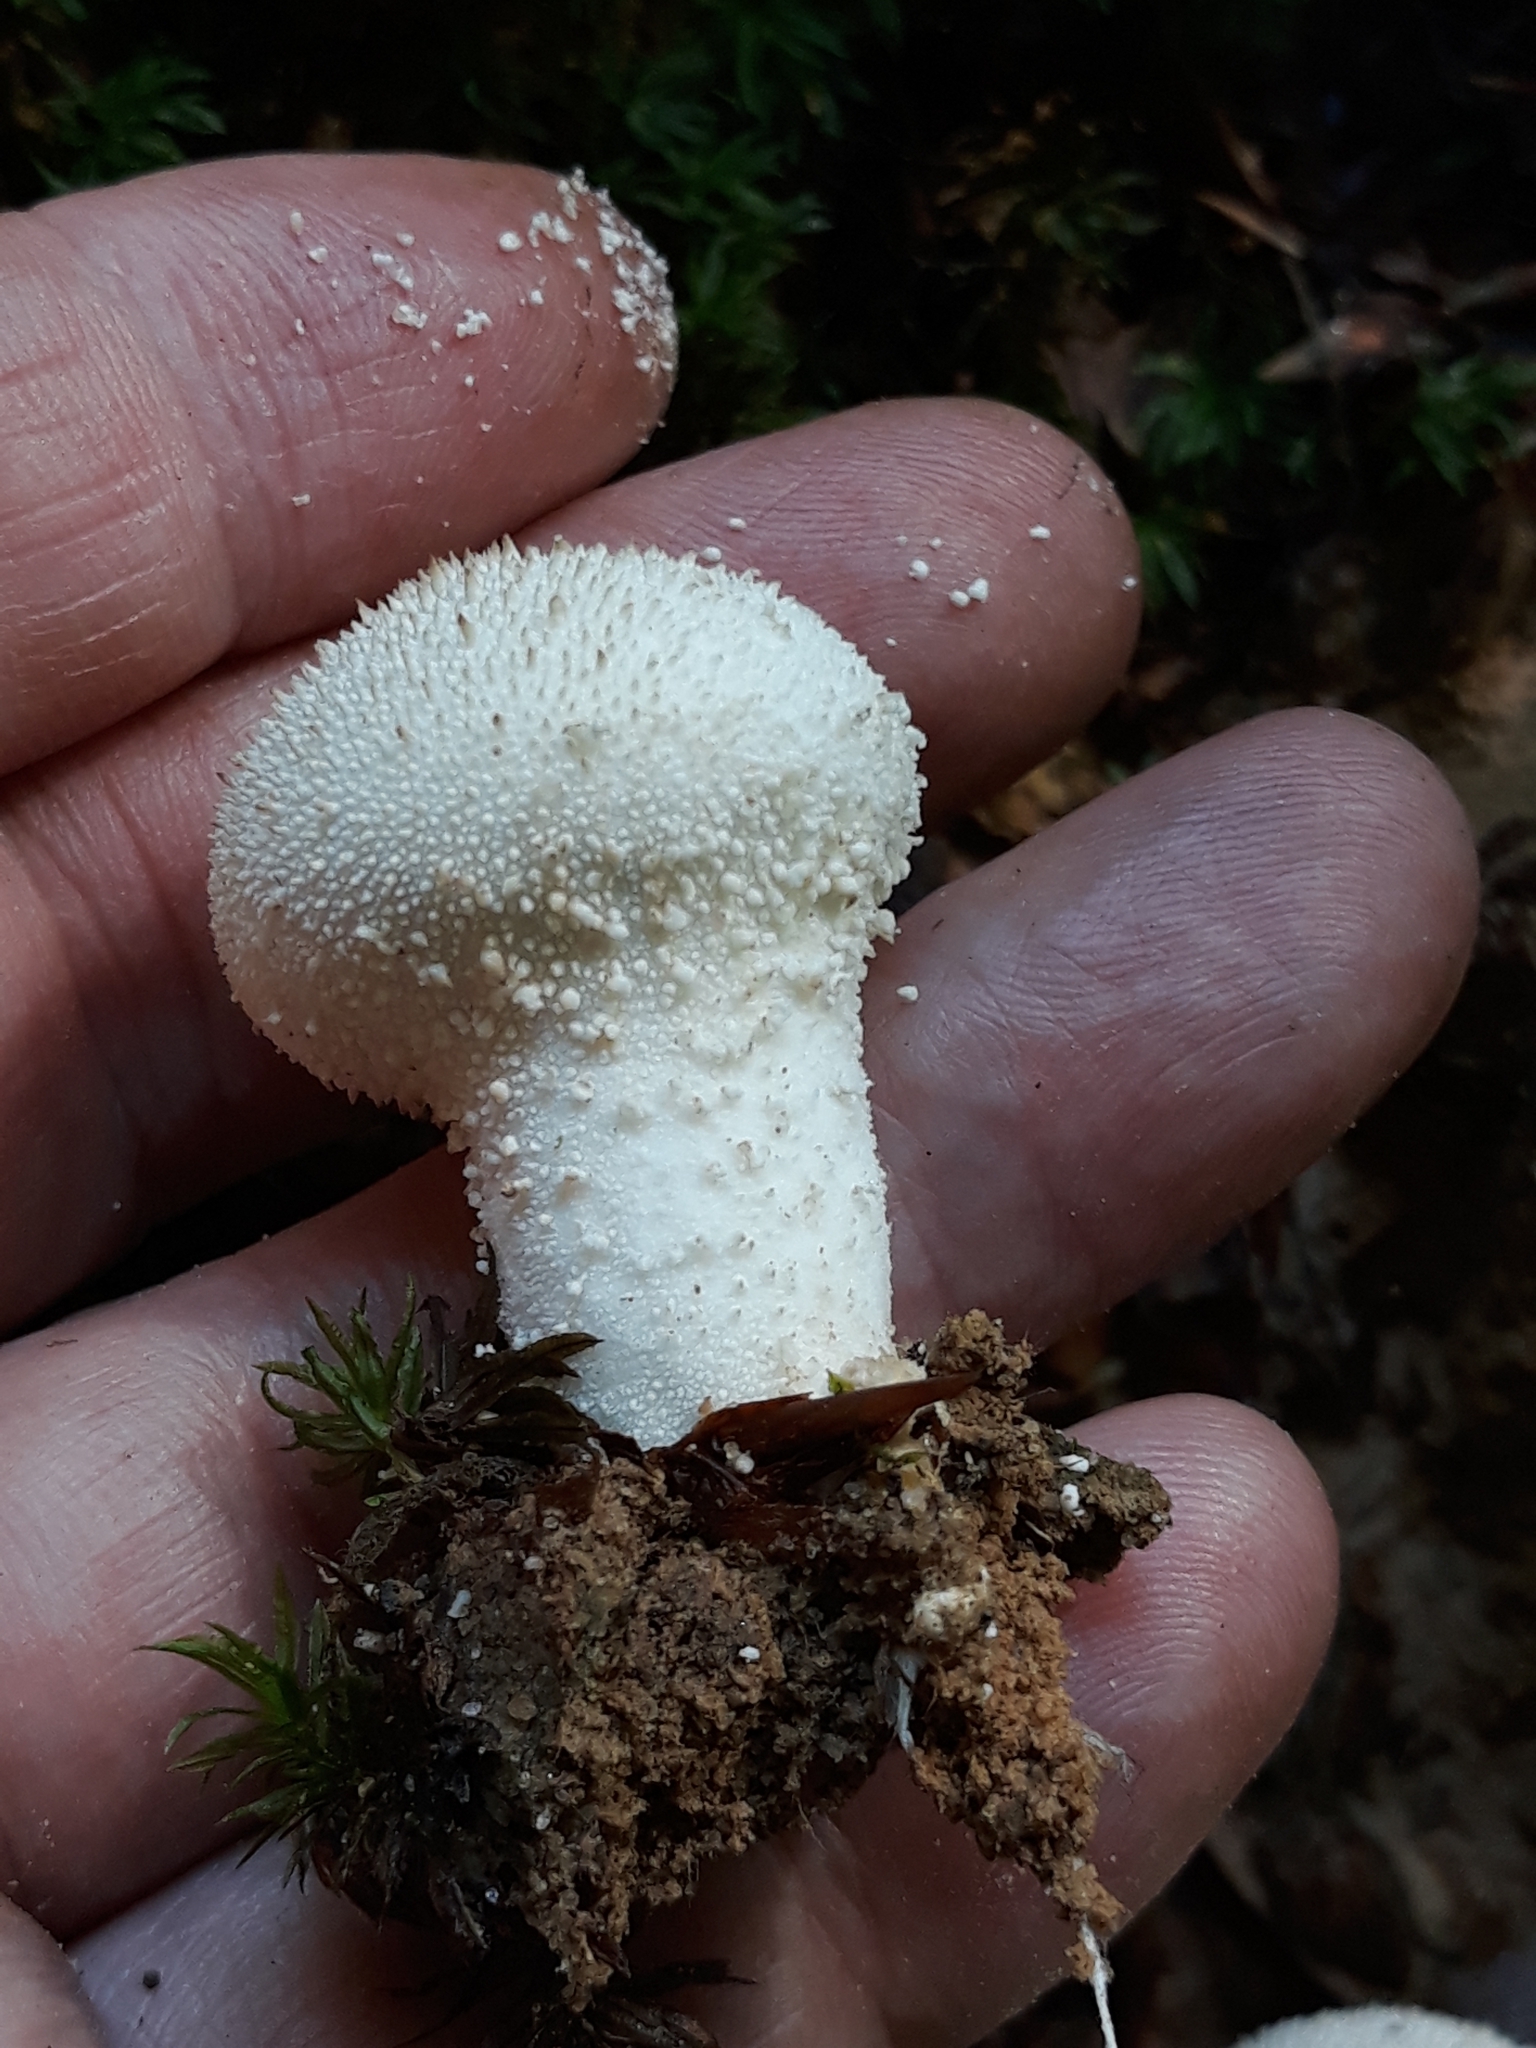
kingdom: Fungi
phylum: Basidiomycota
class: Agaricomycetes
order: Agaricales
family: Lycoperdaceae
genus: Lycoperdon
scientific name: Lycoperdon perlatum
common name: Common puffball
